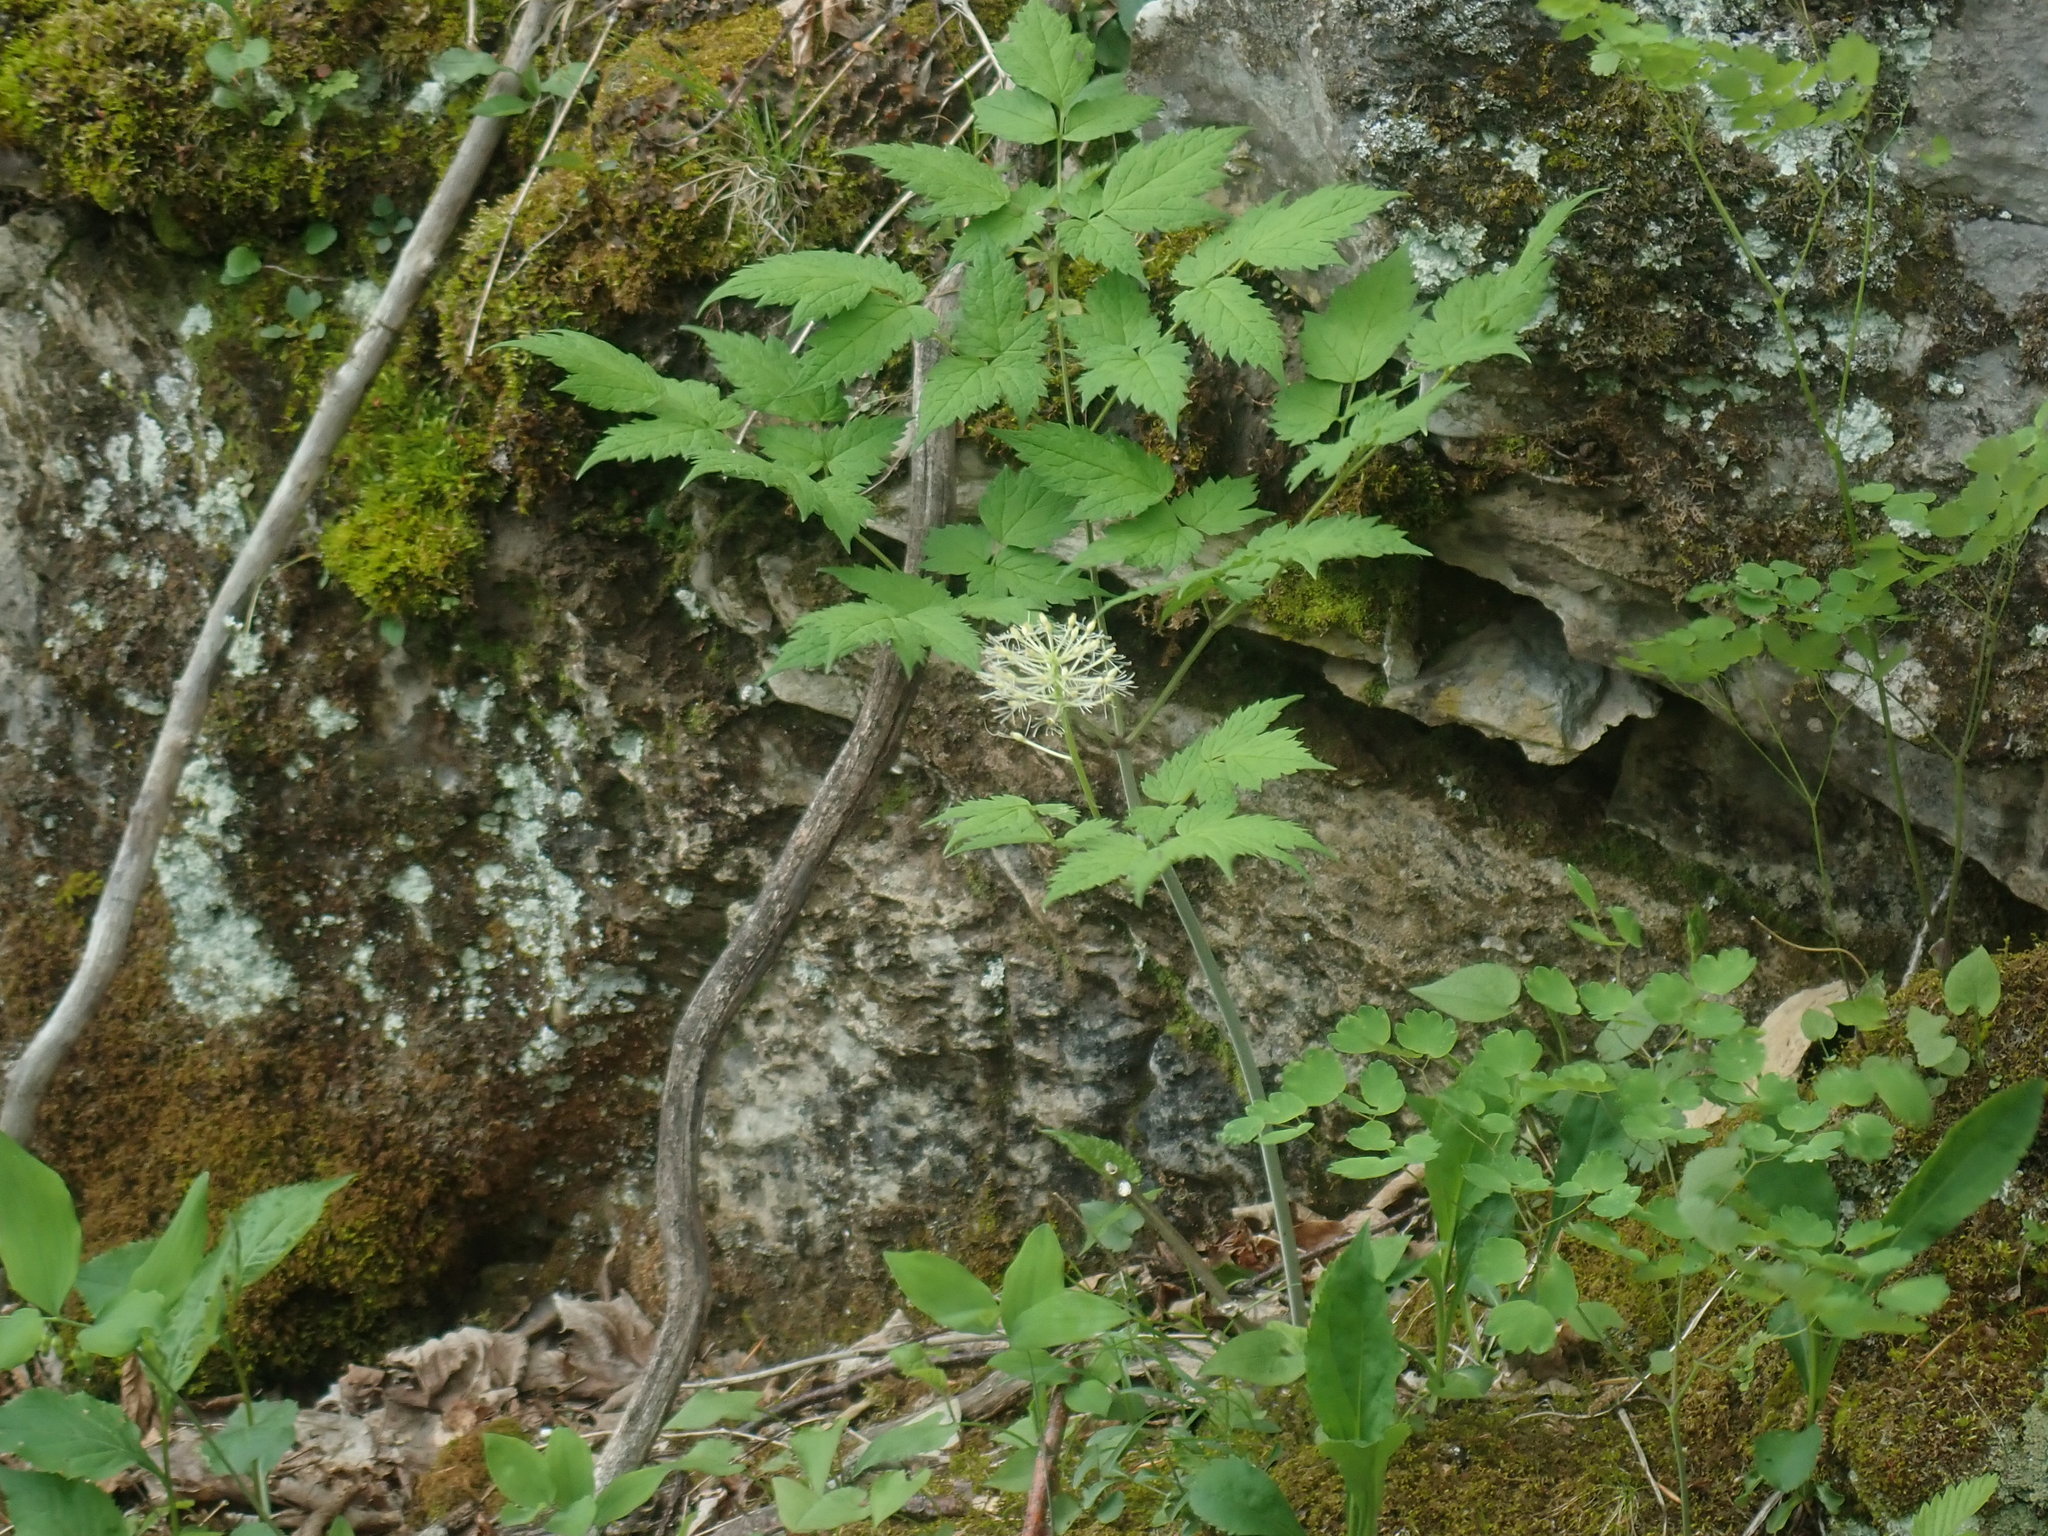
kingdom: Plantae
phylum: Tracheophyta
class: Magnoliopsida
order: Ranunculales
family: Ranunculaceae
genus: Actaea
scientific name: Actaea rubra
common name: Red baneberry
